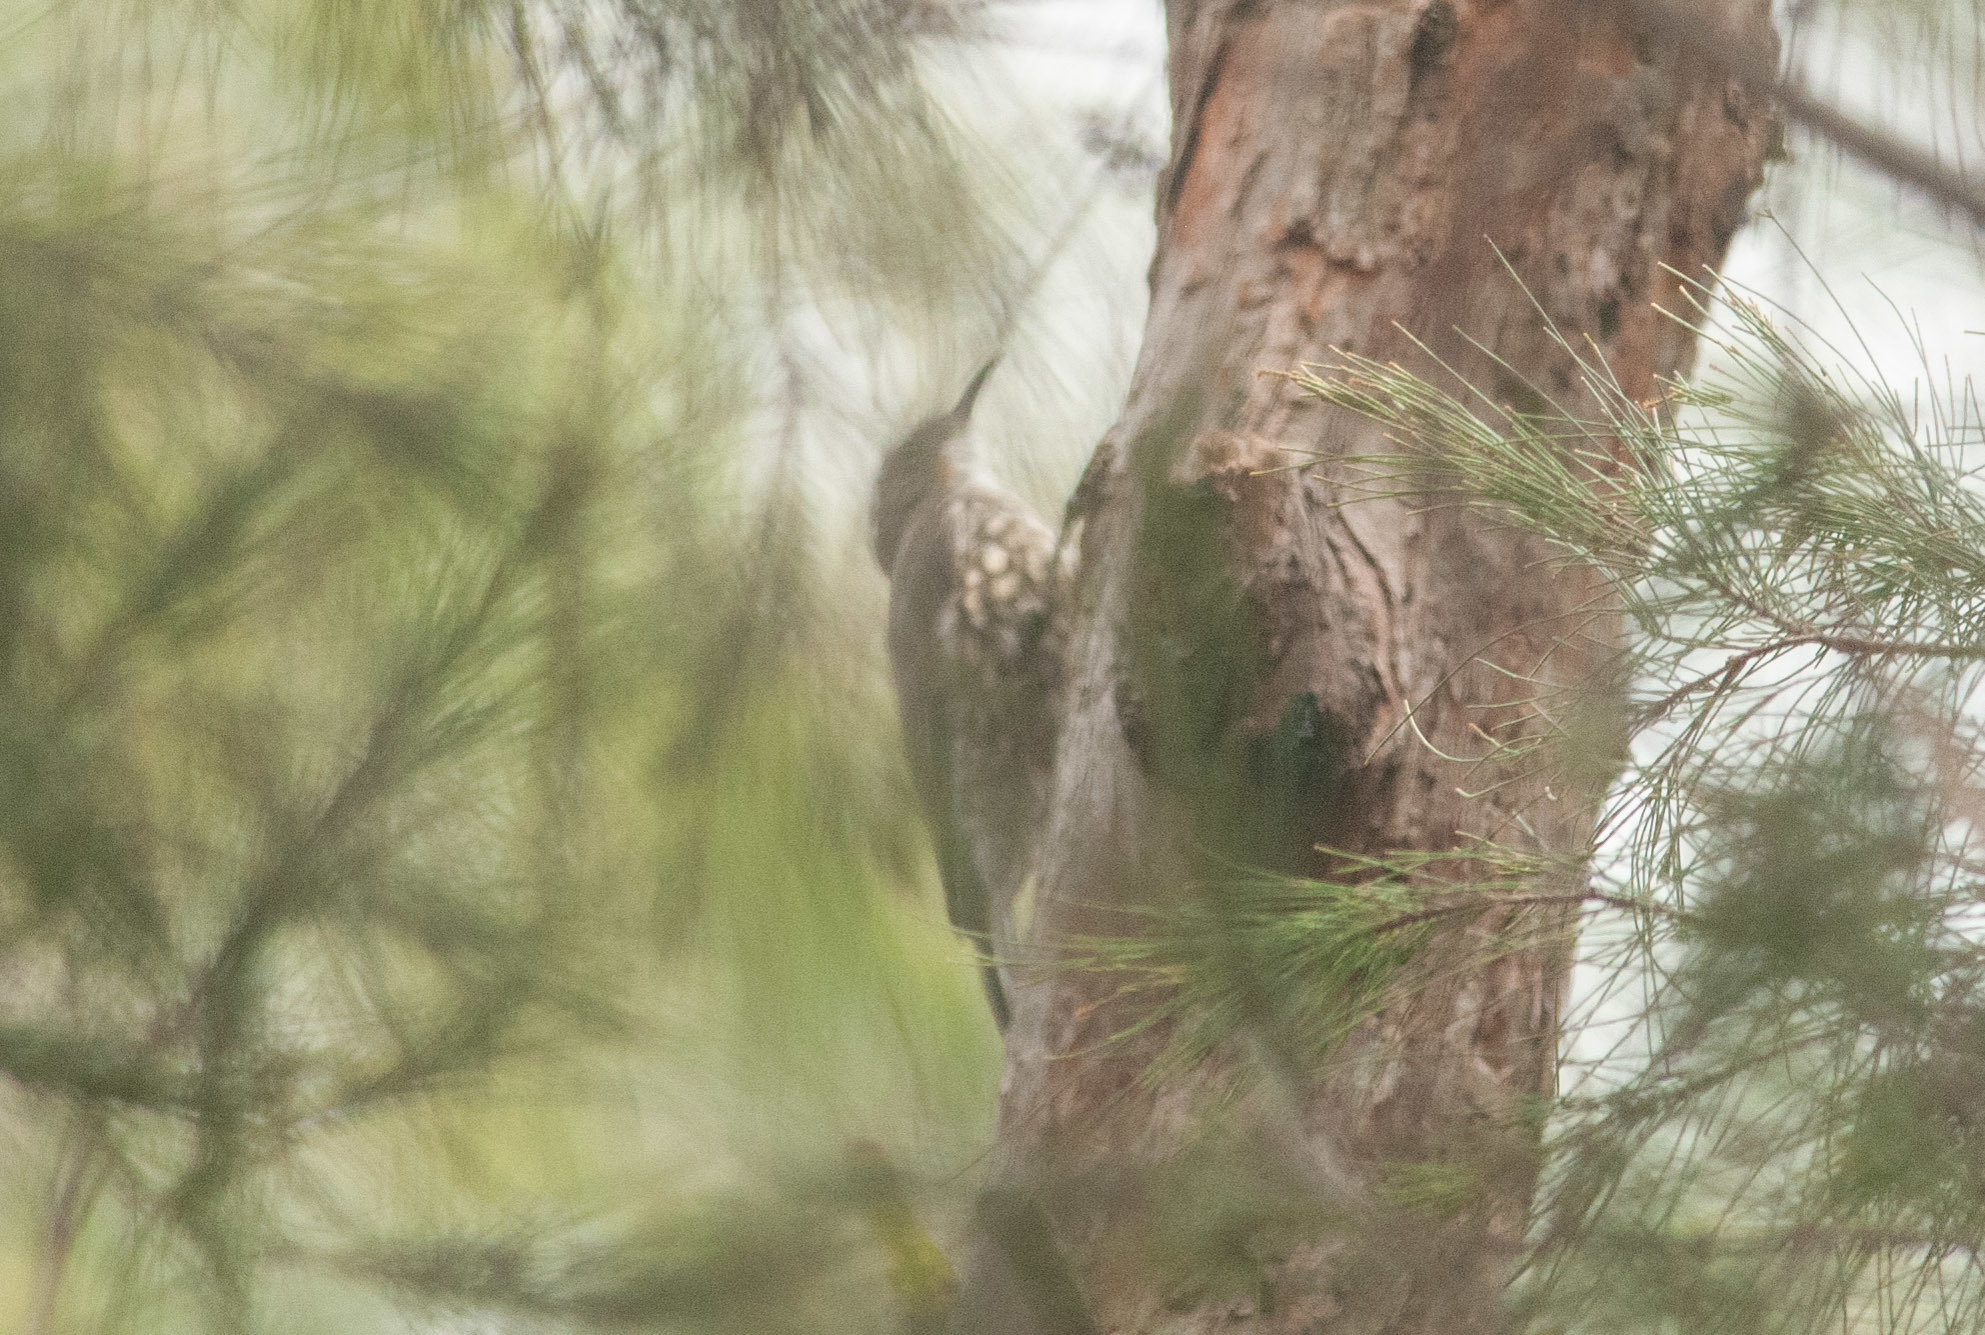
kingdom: Animalia
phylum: Chordata
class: Aves
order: Passeriformes
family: Climacteridae
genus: Cormobates
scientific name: Cormobates leucophaea
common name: White-throated treecreeper
